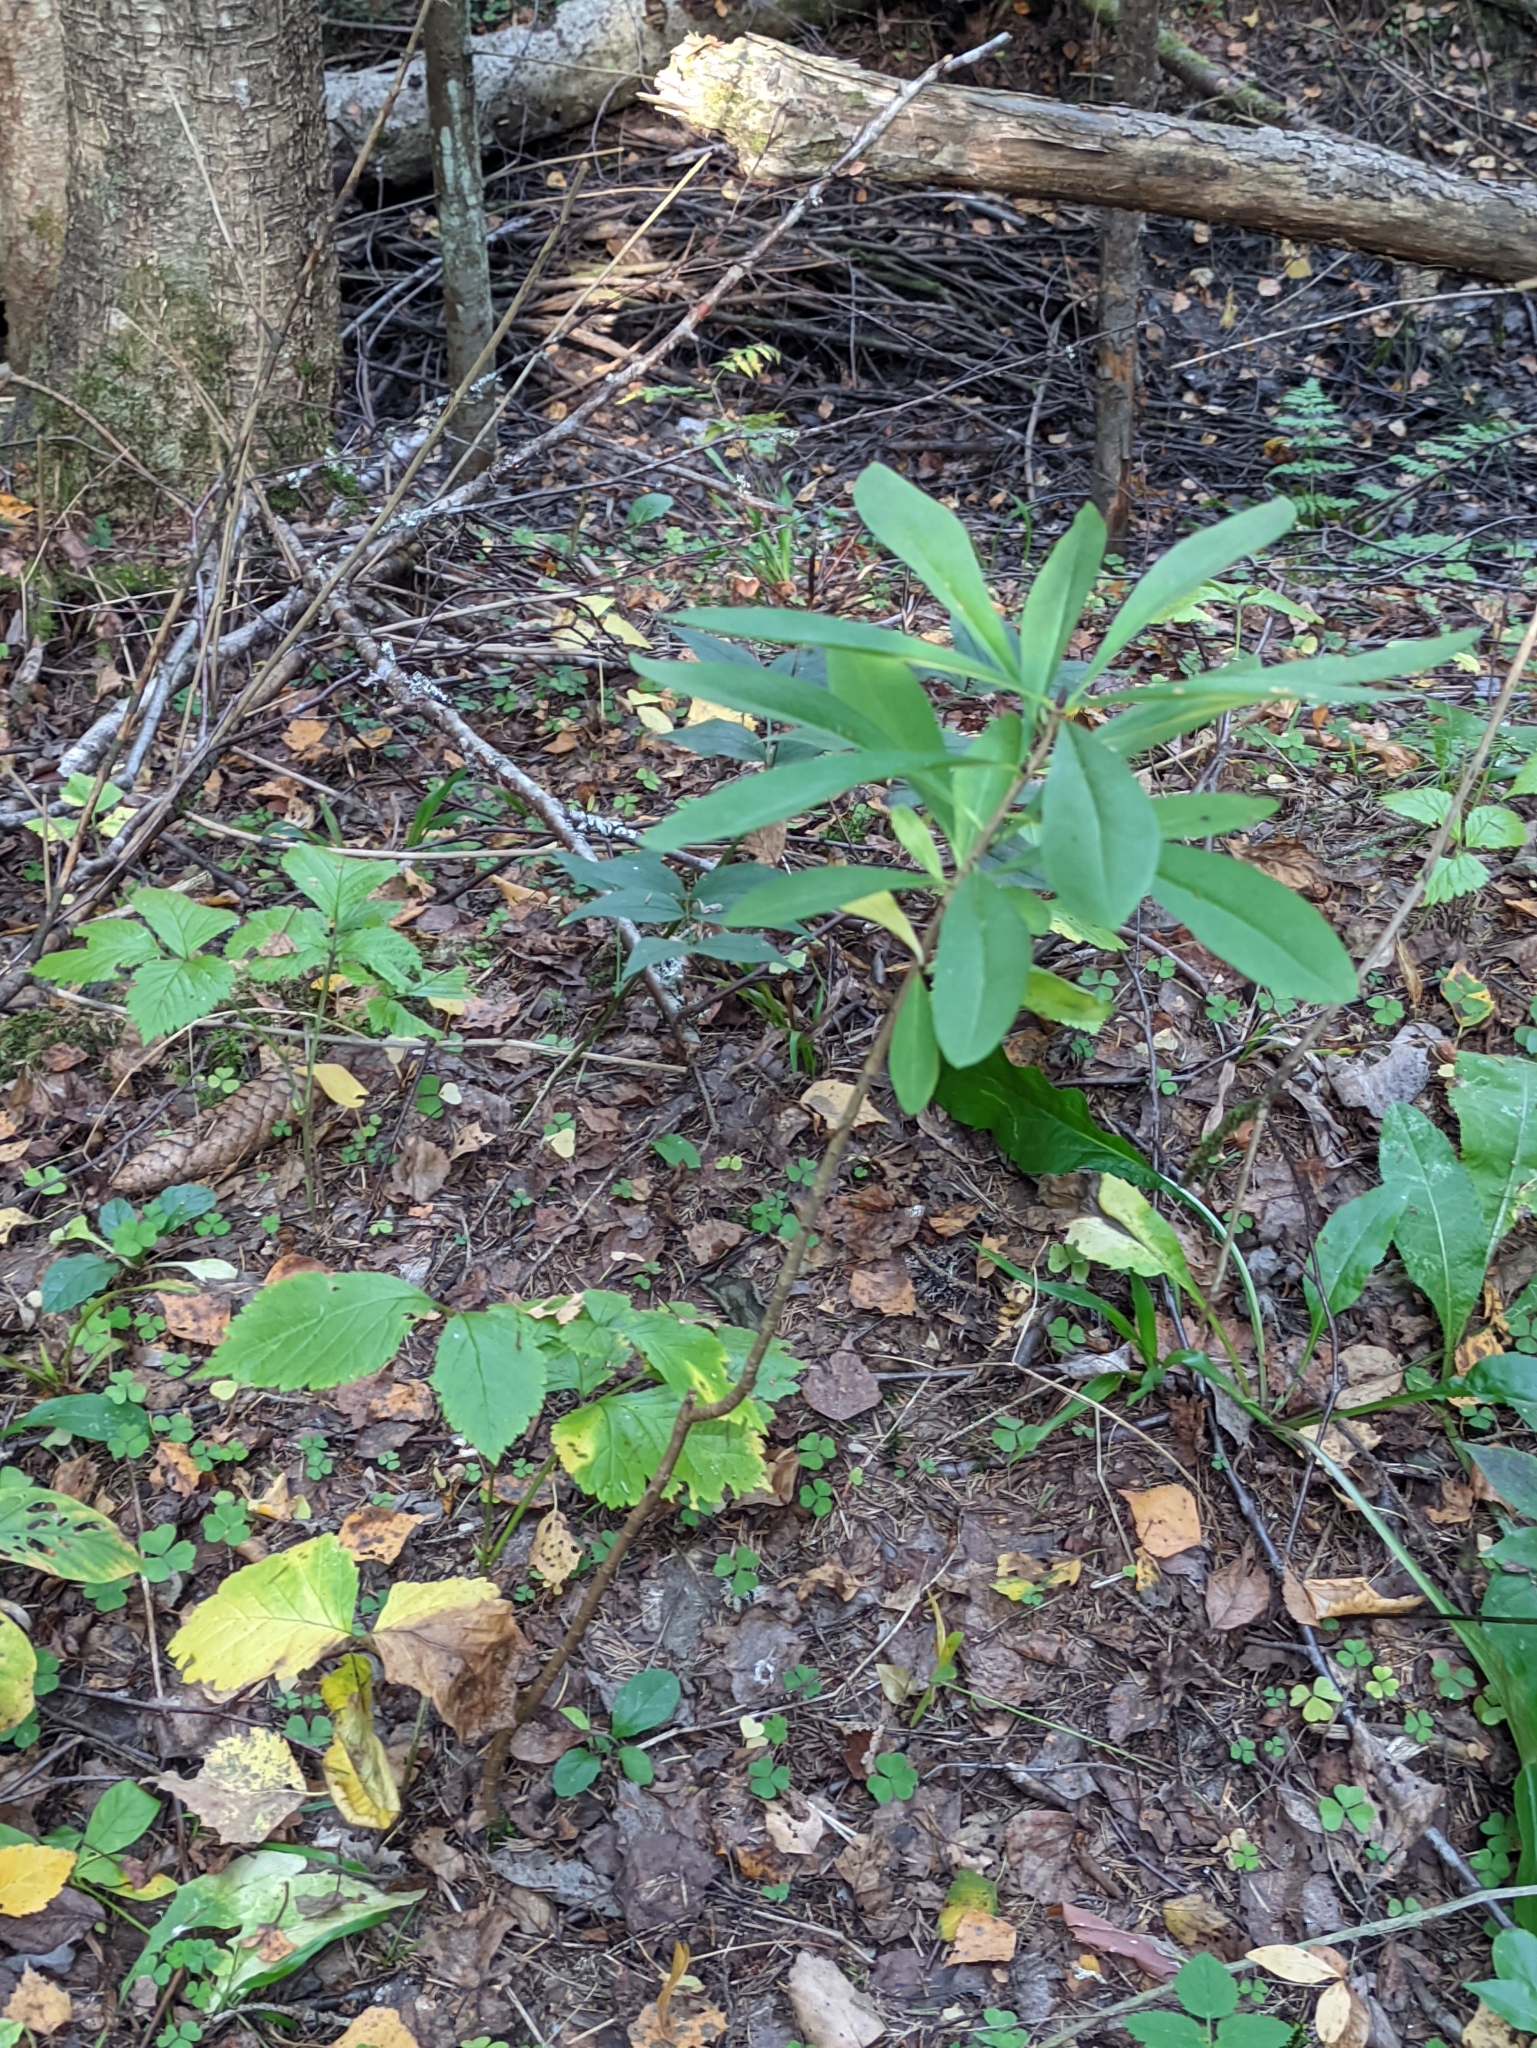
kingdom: Plantae
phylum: Tracheophyta
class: Magnoliopsida
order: Malvales
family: Thymelaeaceae
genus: Daphne
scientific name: Daphne mezereum
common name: Mezereon
